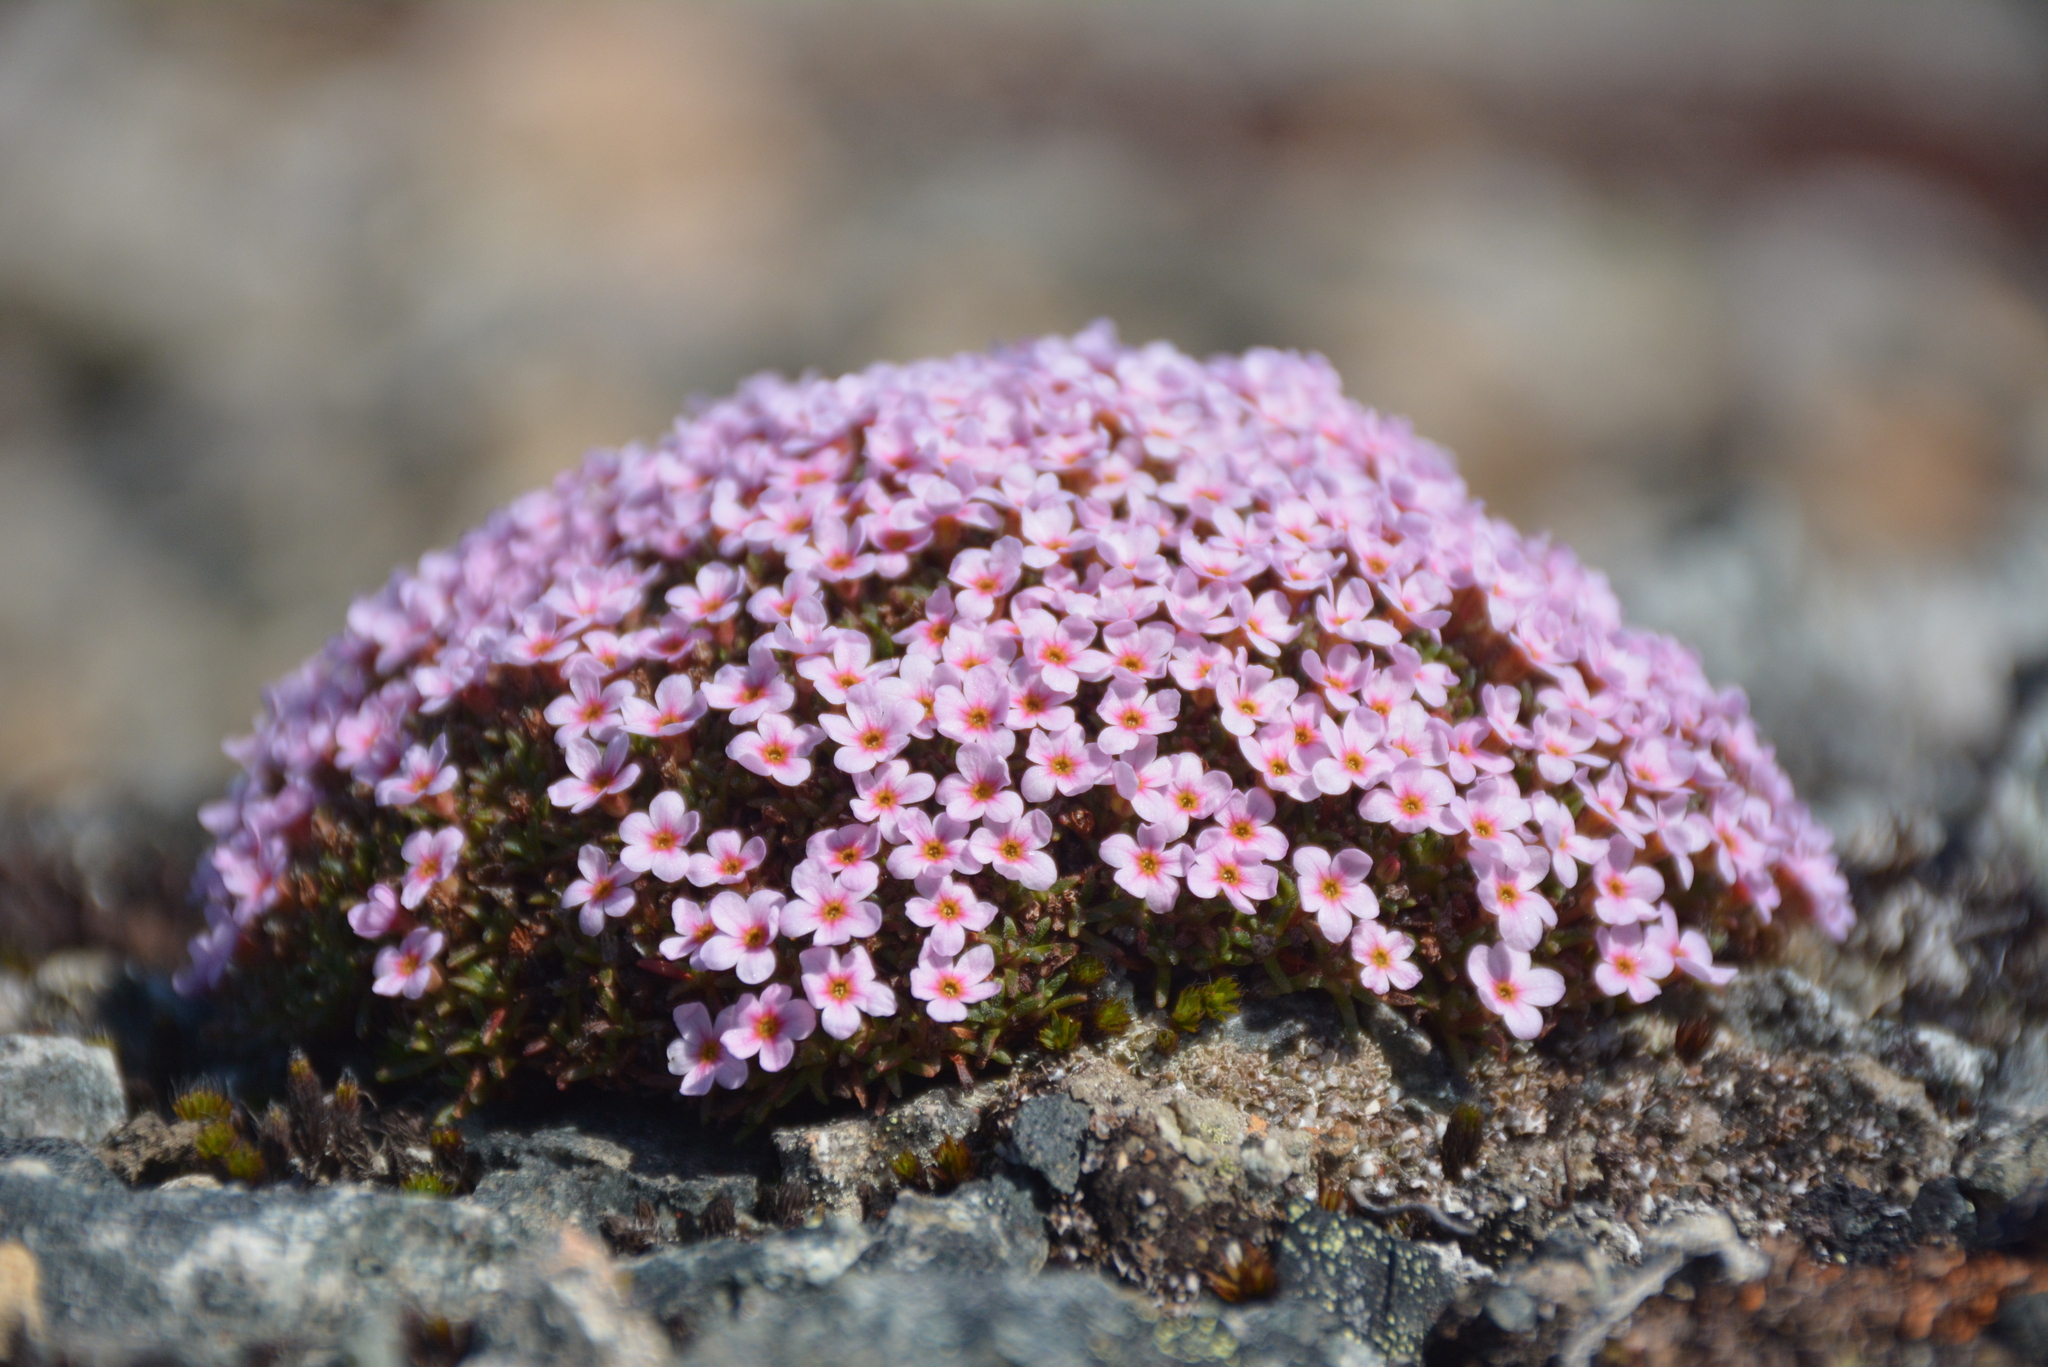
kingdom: Plantae
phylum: Tracheophyta
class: Magnoliopsida
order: Ericales
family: Primulaceae
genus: Androsace
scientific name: Androsace ochotensis
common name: Alaska dwarf-primrose
